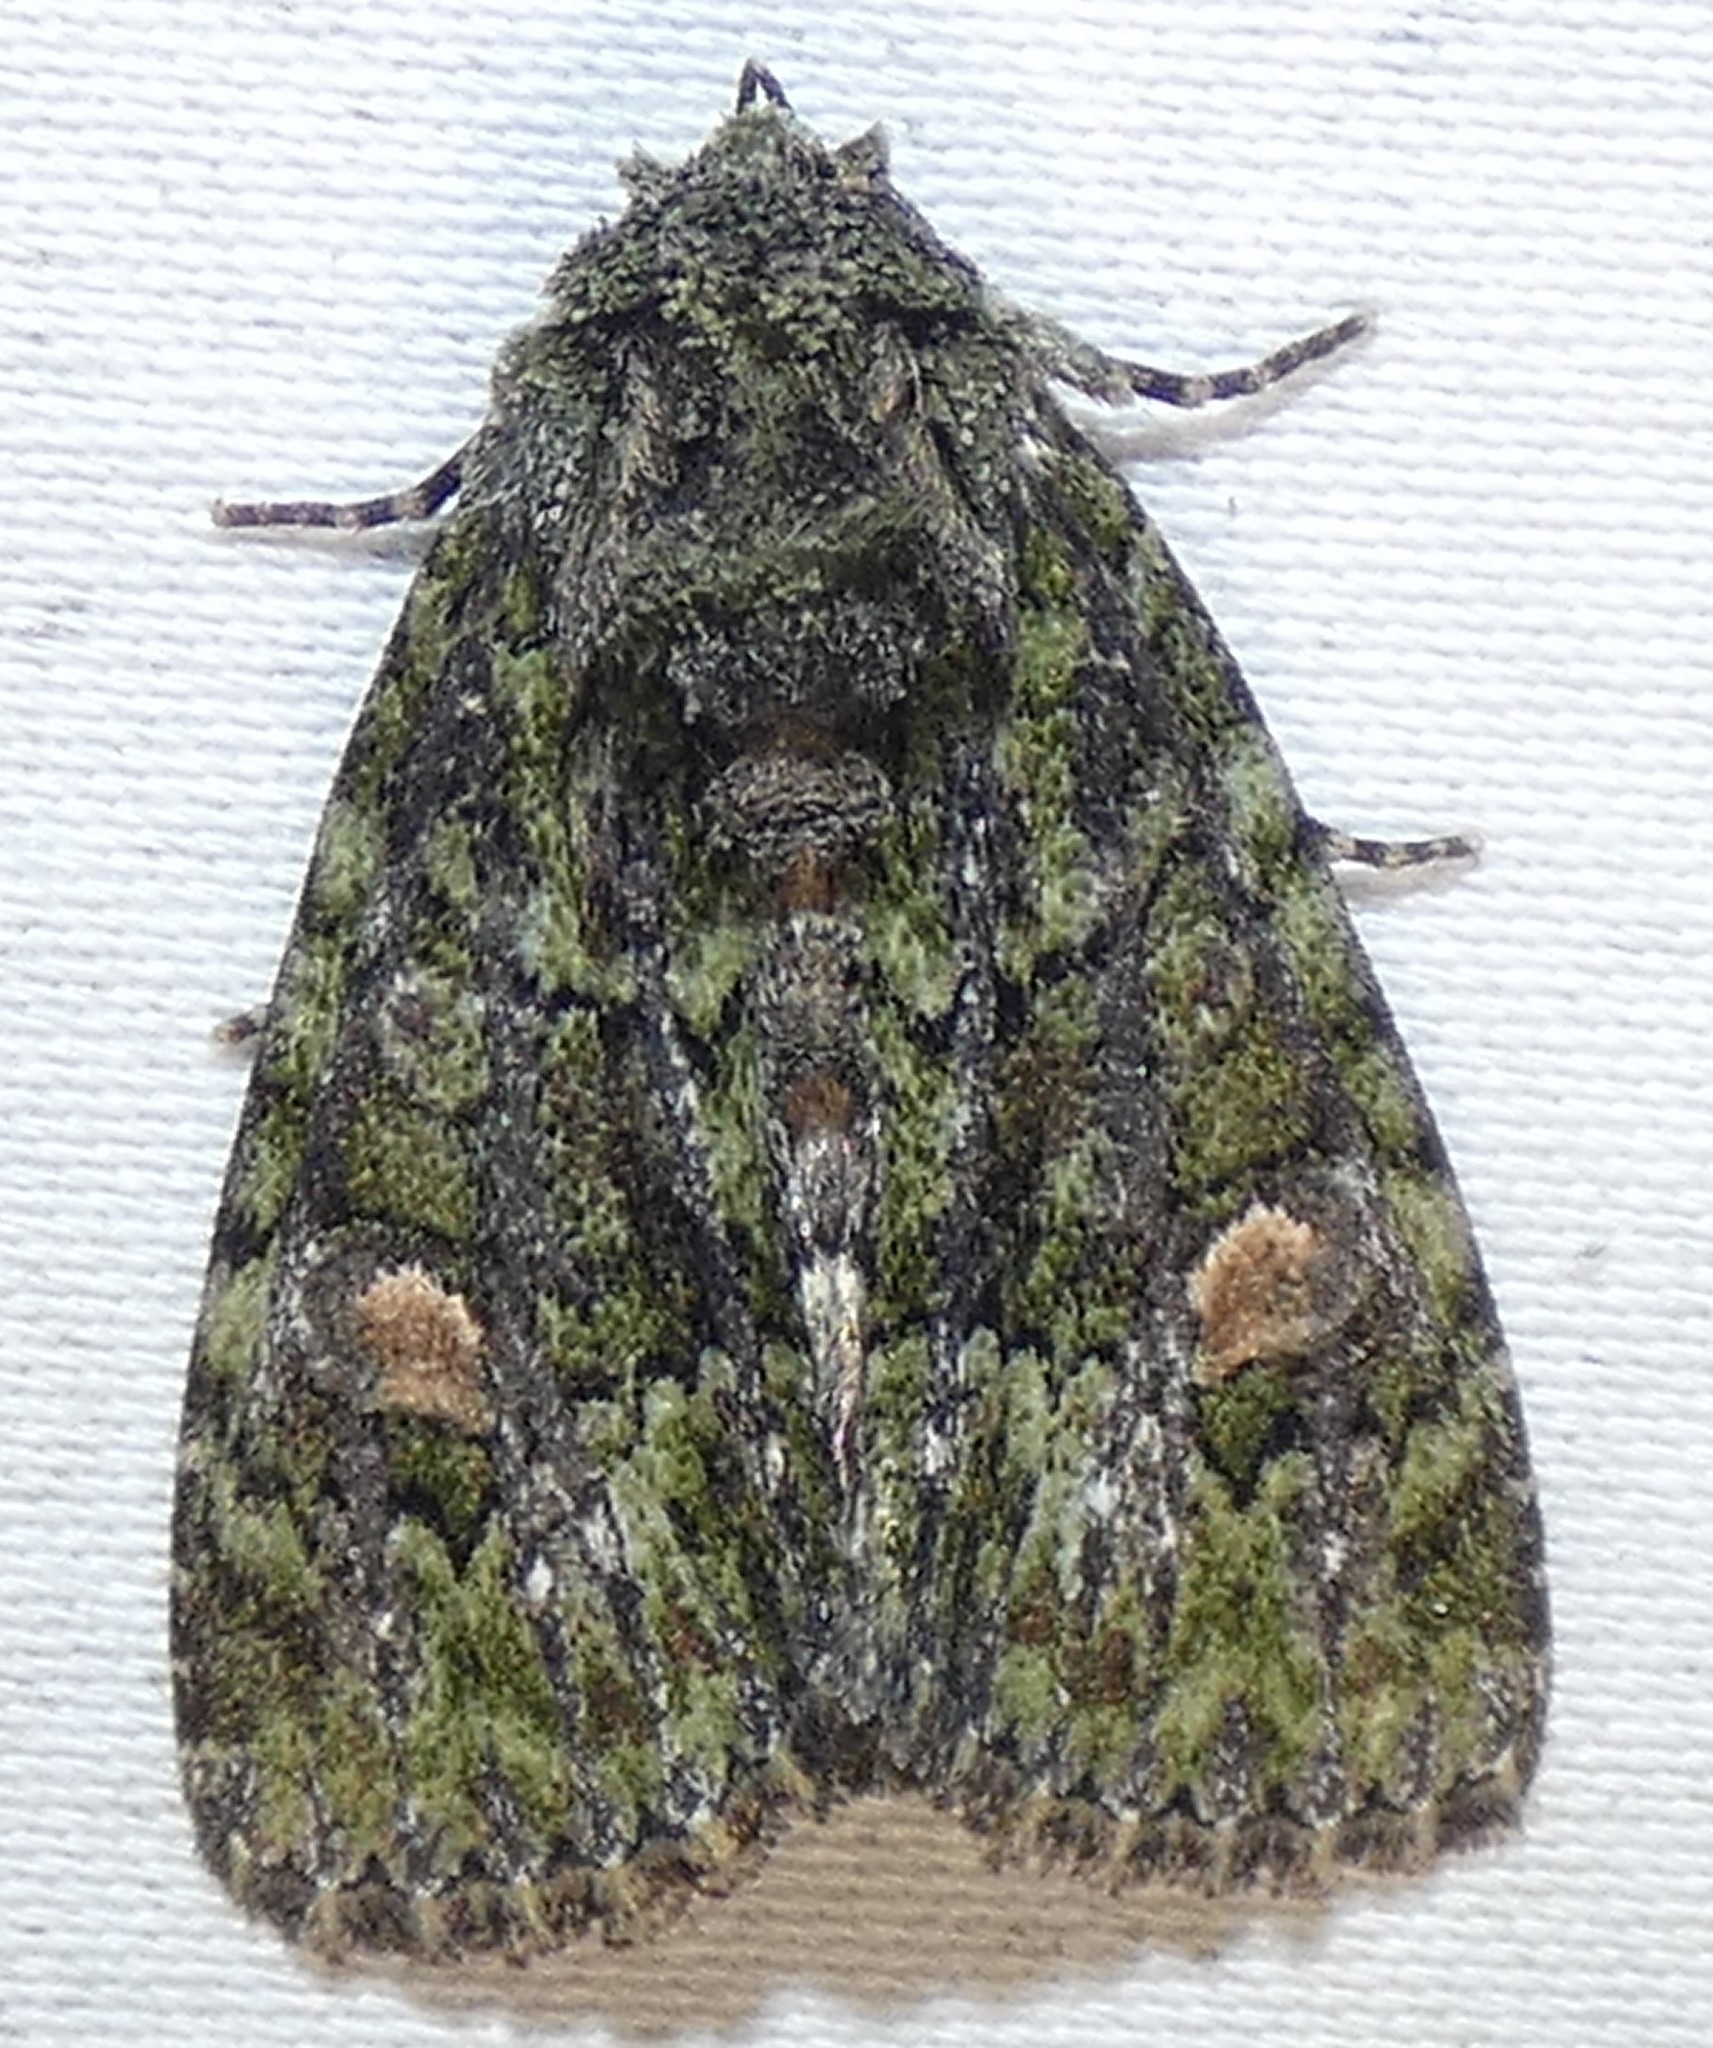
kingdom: Animalia
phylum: Arthropoda
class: Insecta
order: Lepidoptera
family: Noctuidae
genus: Phosphila
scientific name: Phosphila miselioides
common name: Spotted phosphila moth
